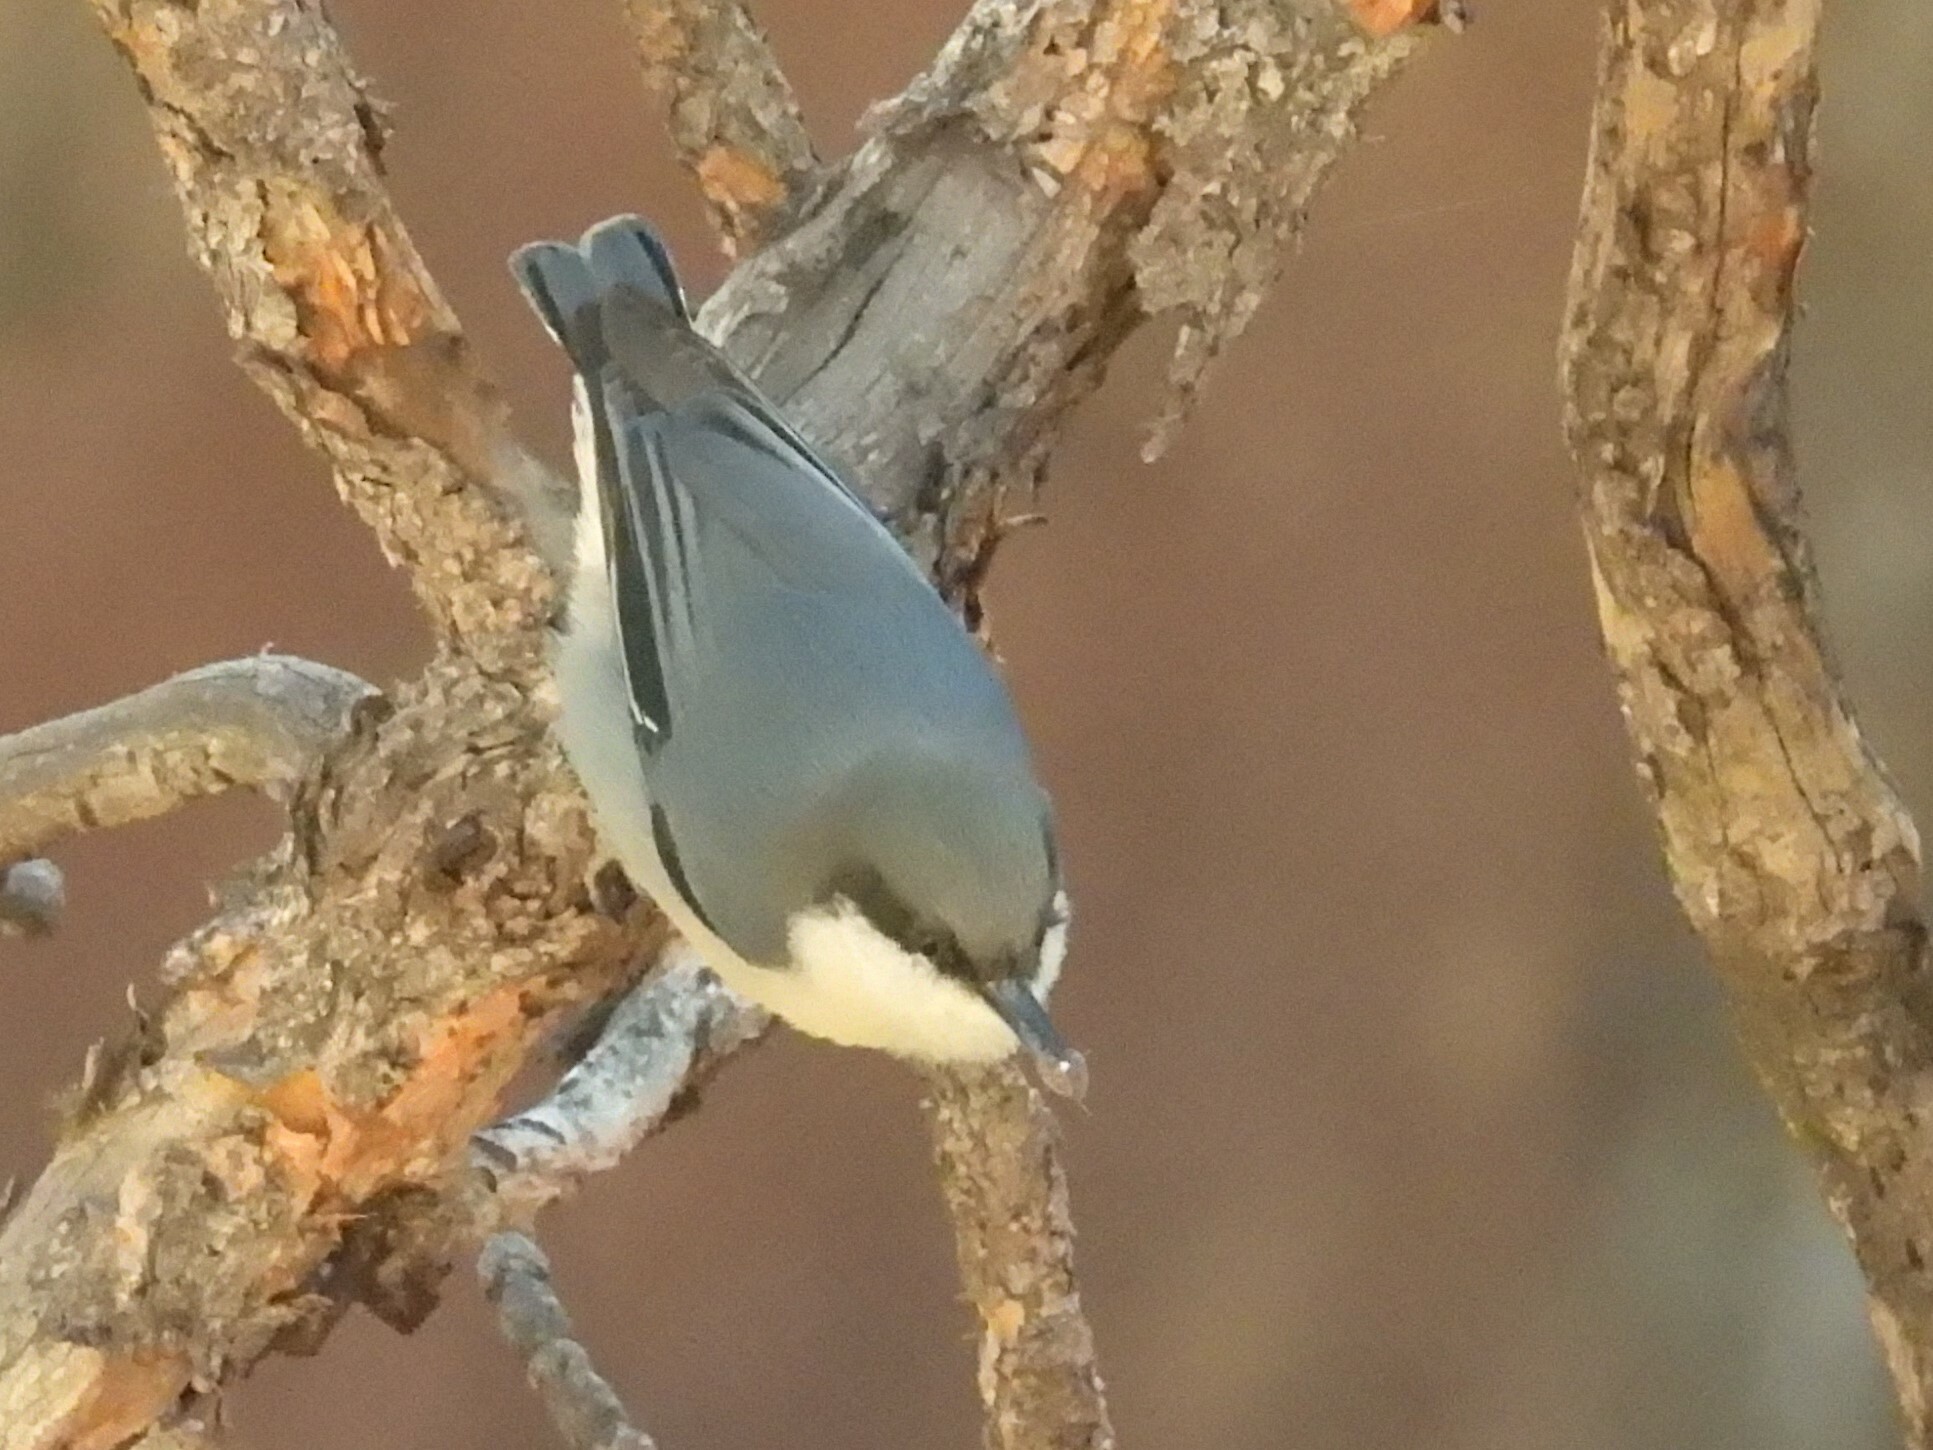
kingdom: Animalia
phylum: Chordata
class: Aves
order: Passeriformes
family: Sittidae
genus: Sitta
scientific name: Sitta pygmaea
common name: Pygmy nuthatch
